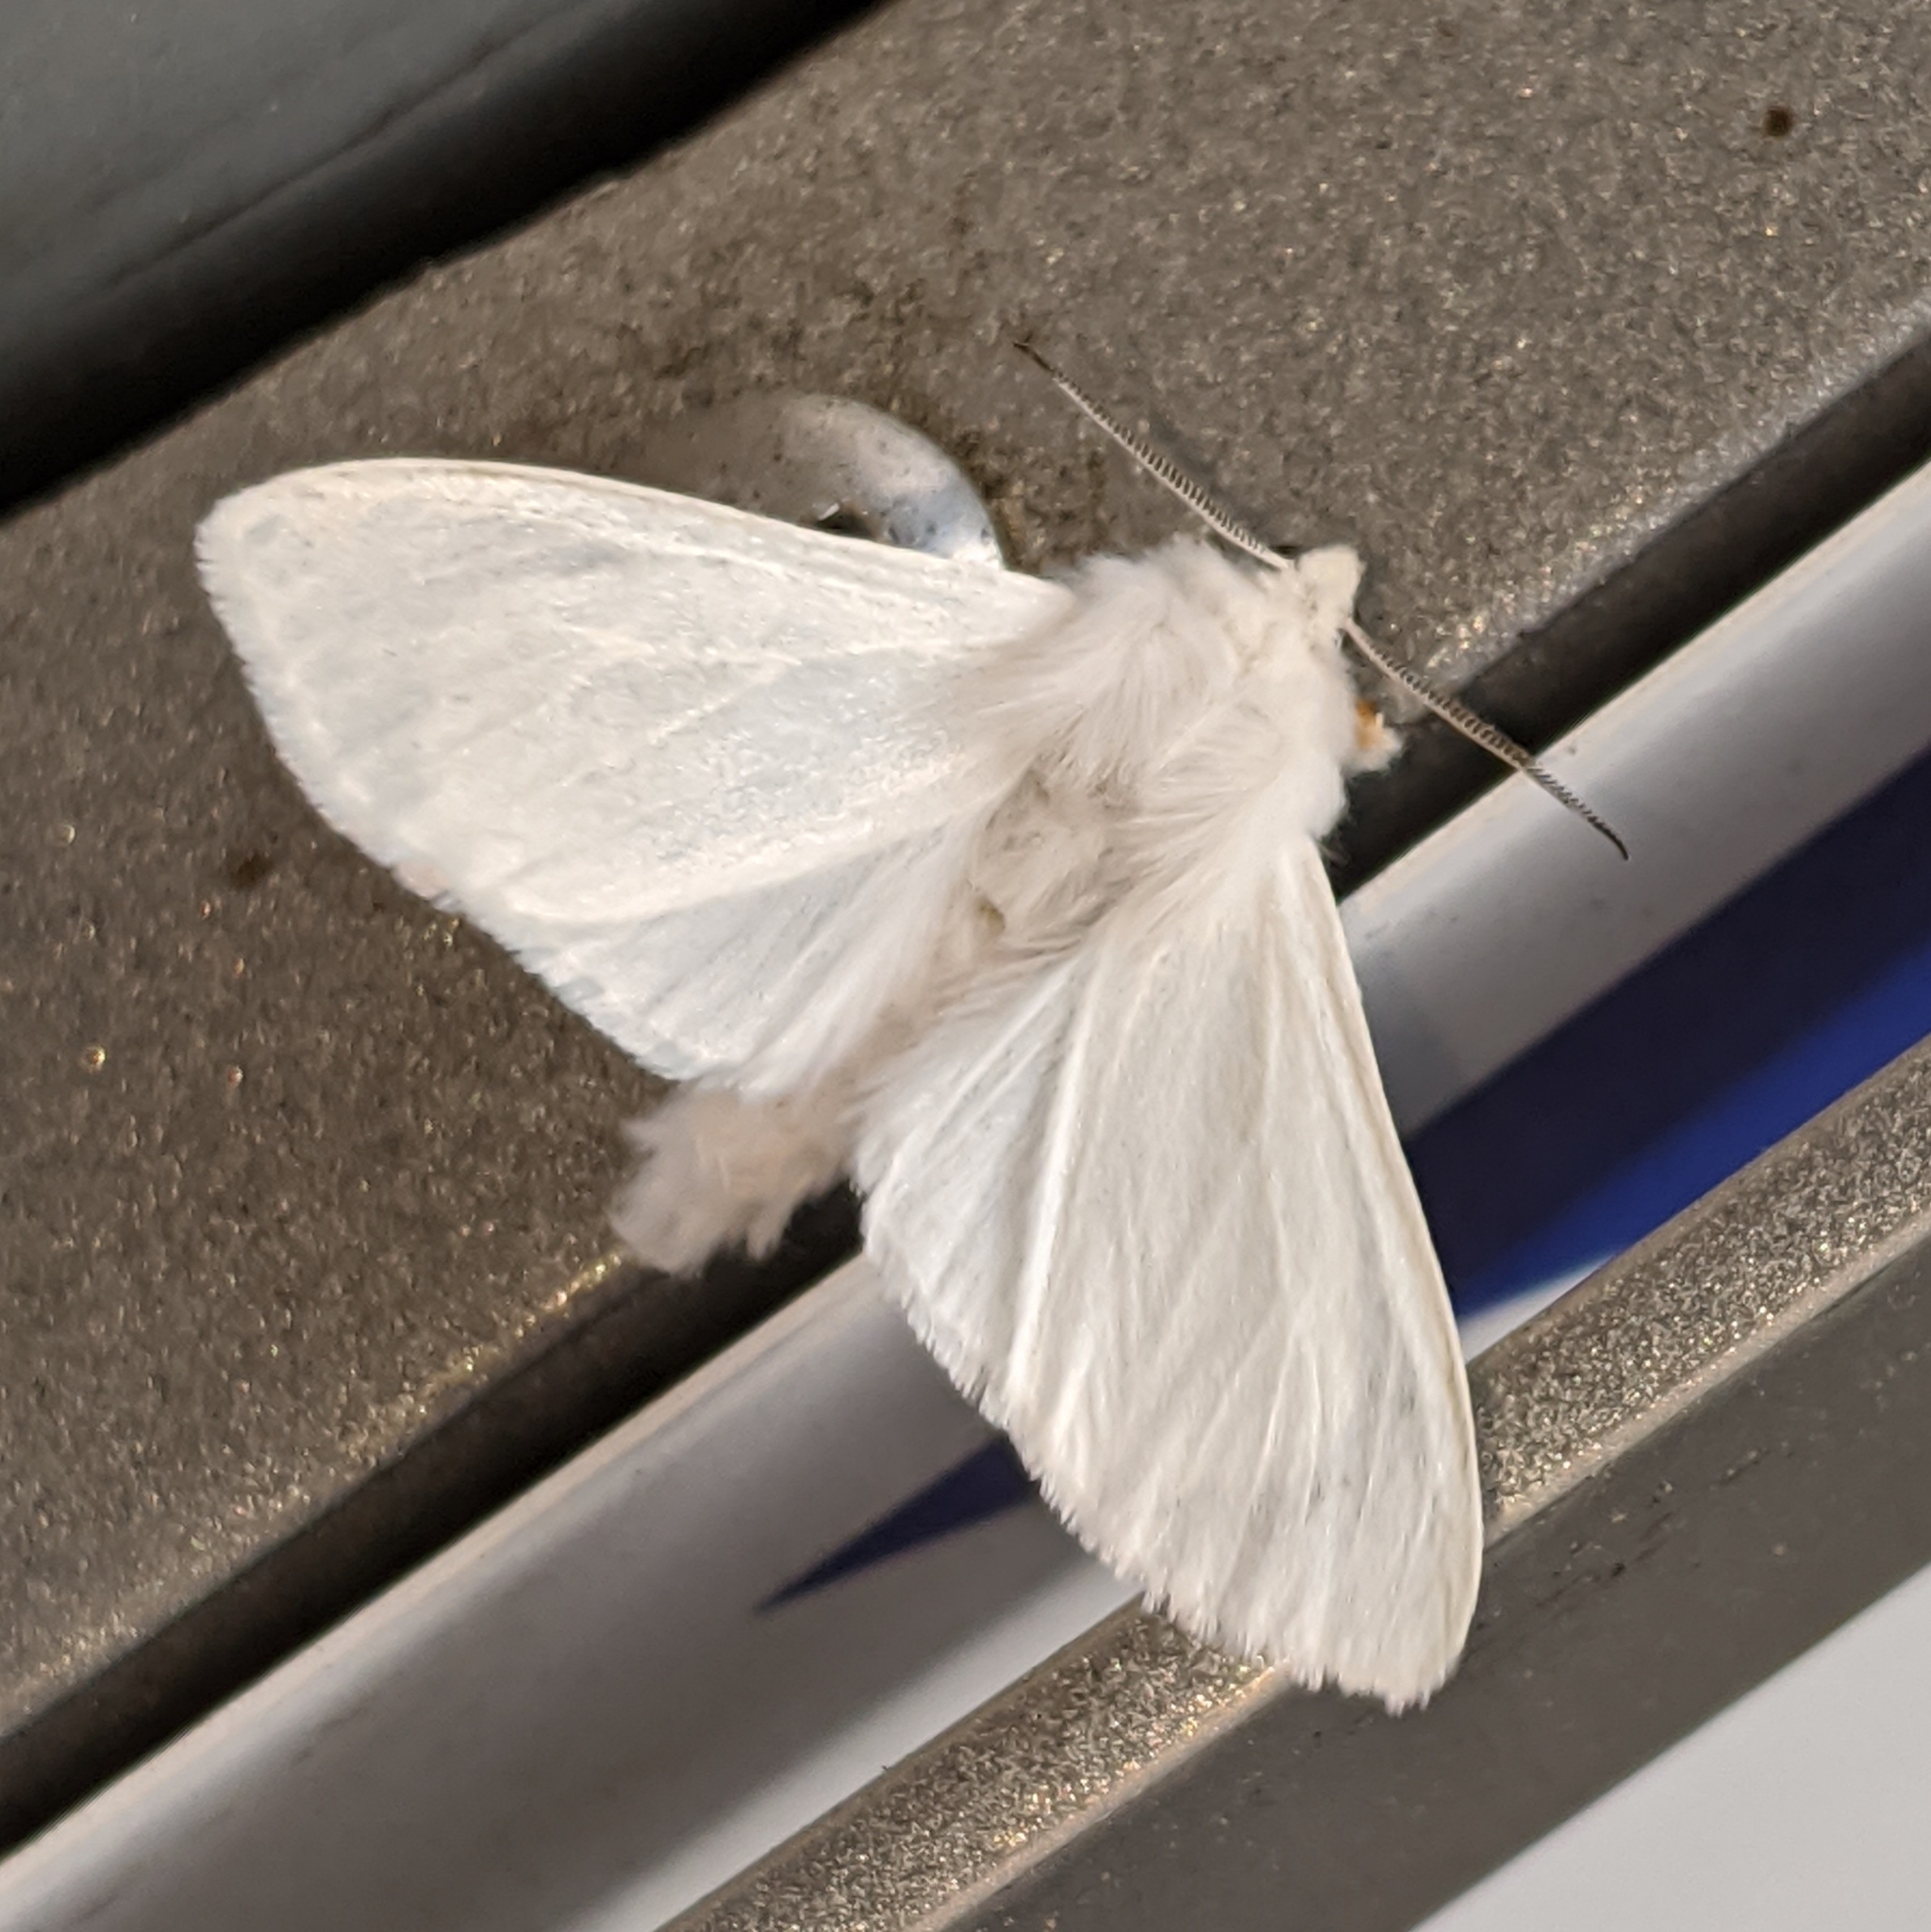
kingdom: Animalia
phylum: Arthropoda
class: Insecta
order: Lepidoptera
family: Erebidae
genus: Hyphantria
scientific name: Hyphantria cunea
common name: American white moth
